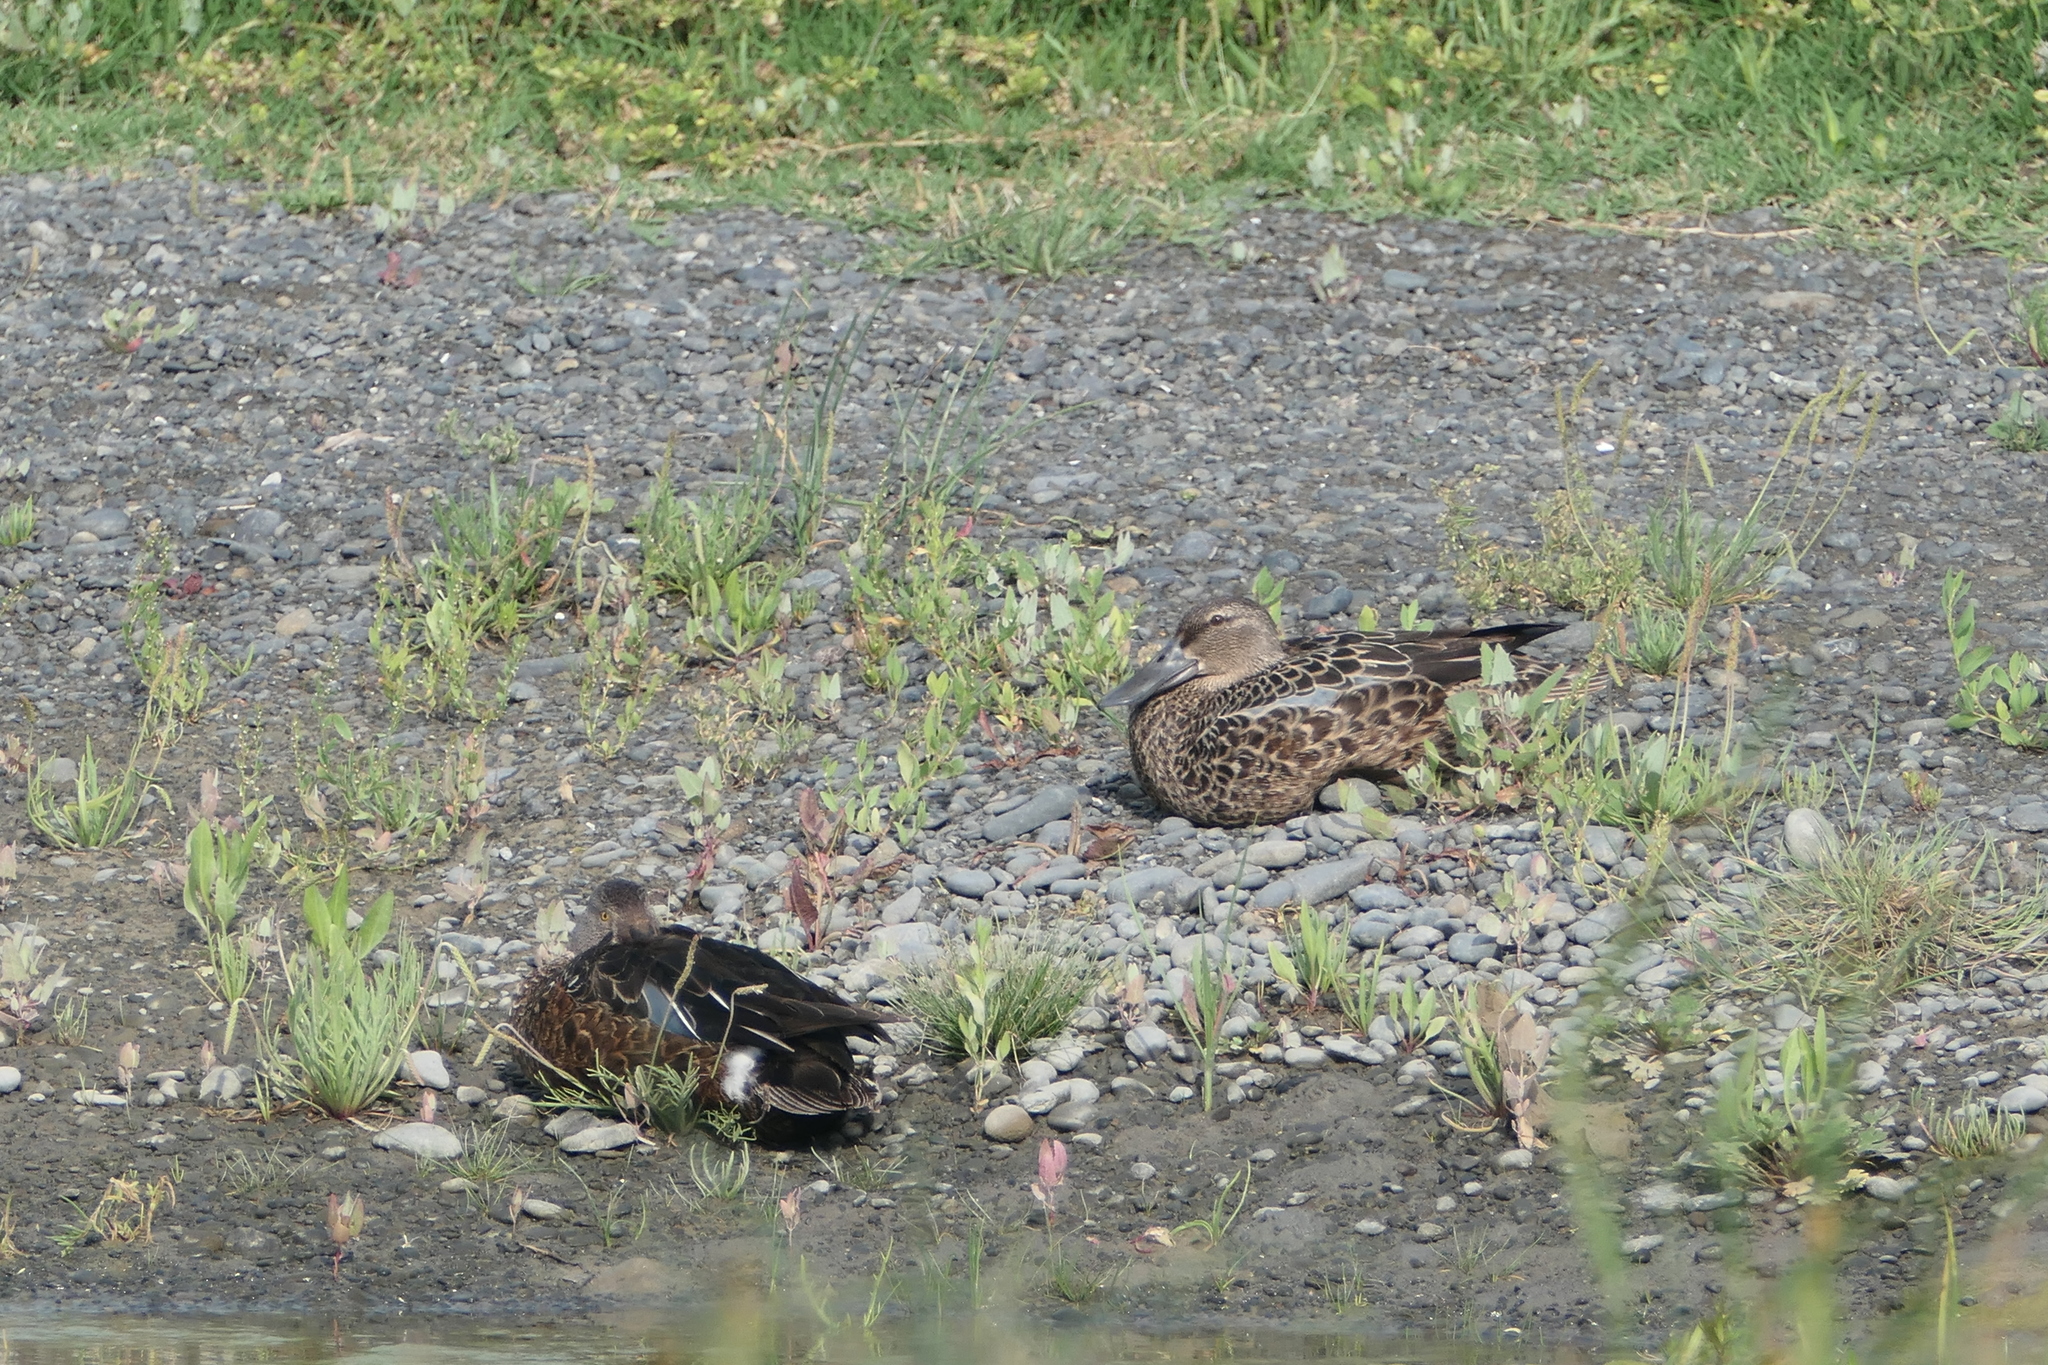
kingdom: Animalia
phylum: Chordata
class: Aves
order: Anseriformes
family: Anatidae
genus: Spatula
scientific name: Spatula rhynchotis
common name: Australian shoveler
